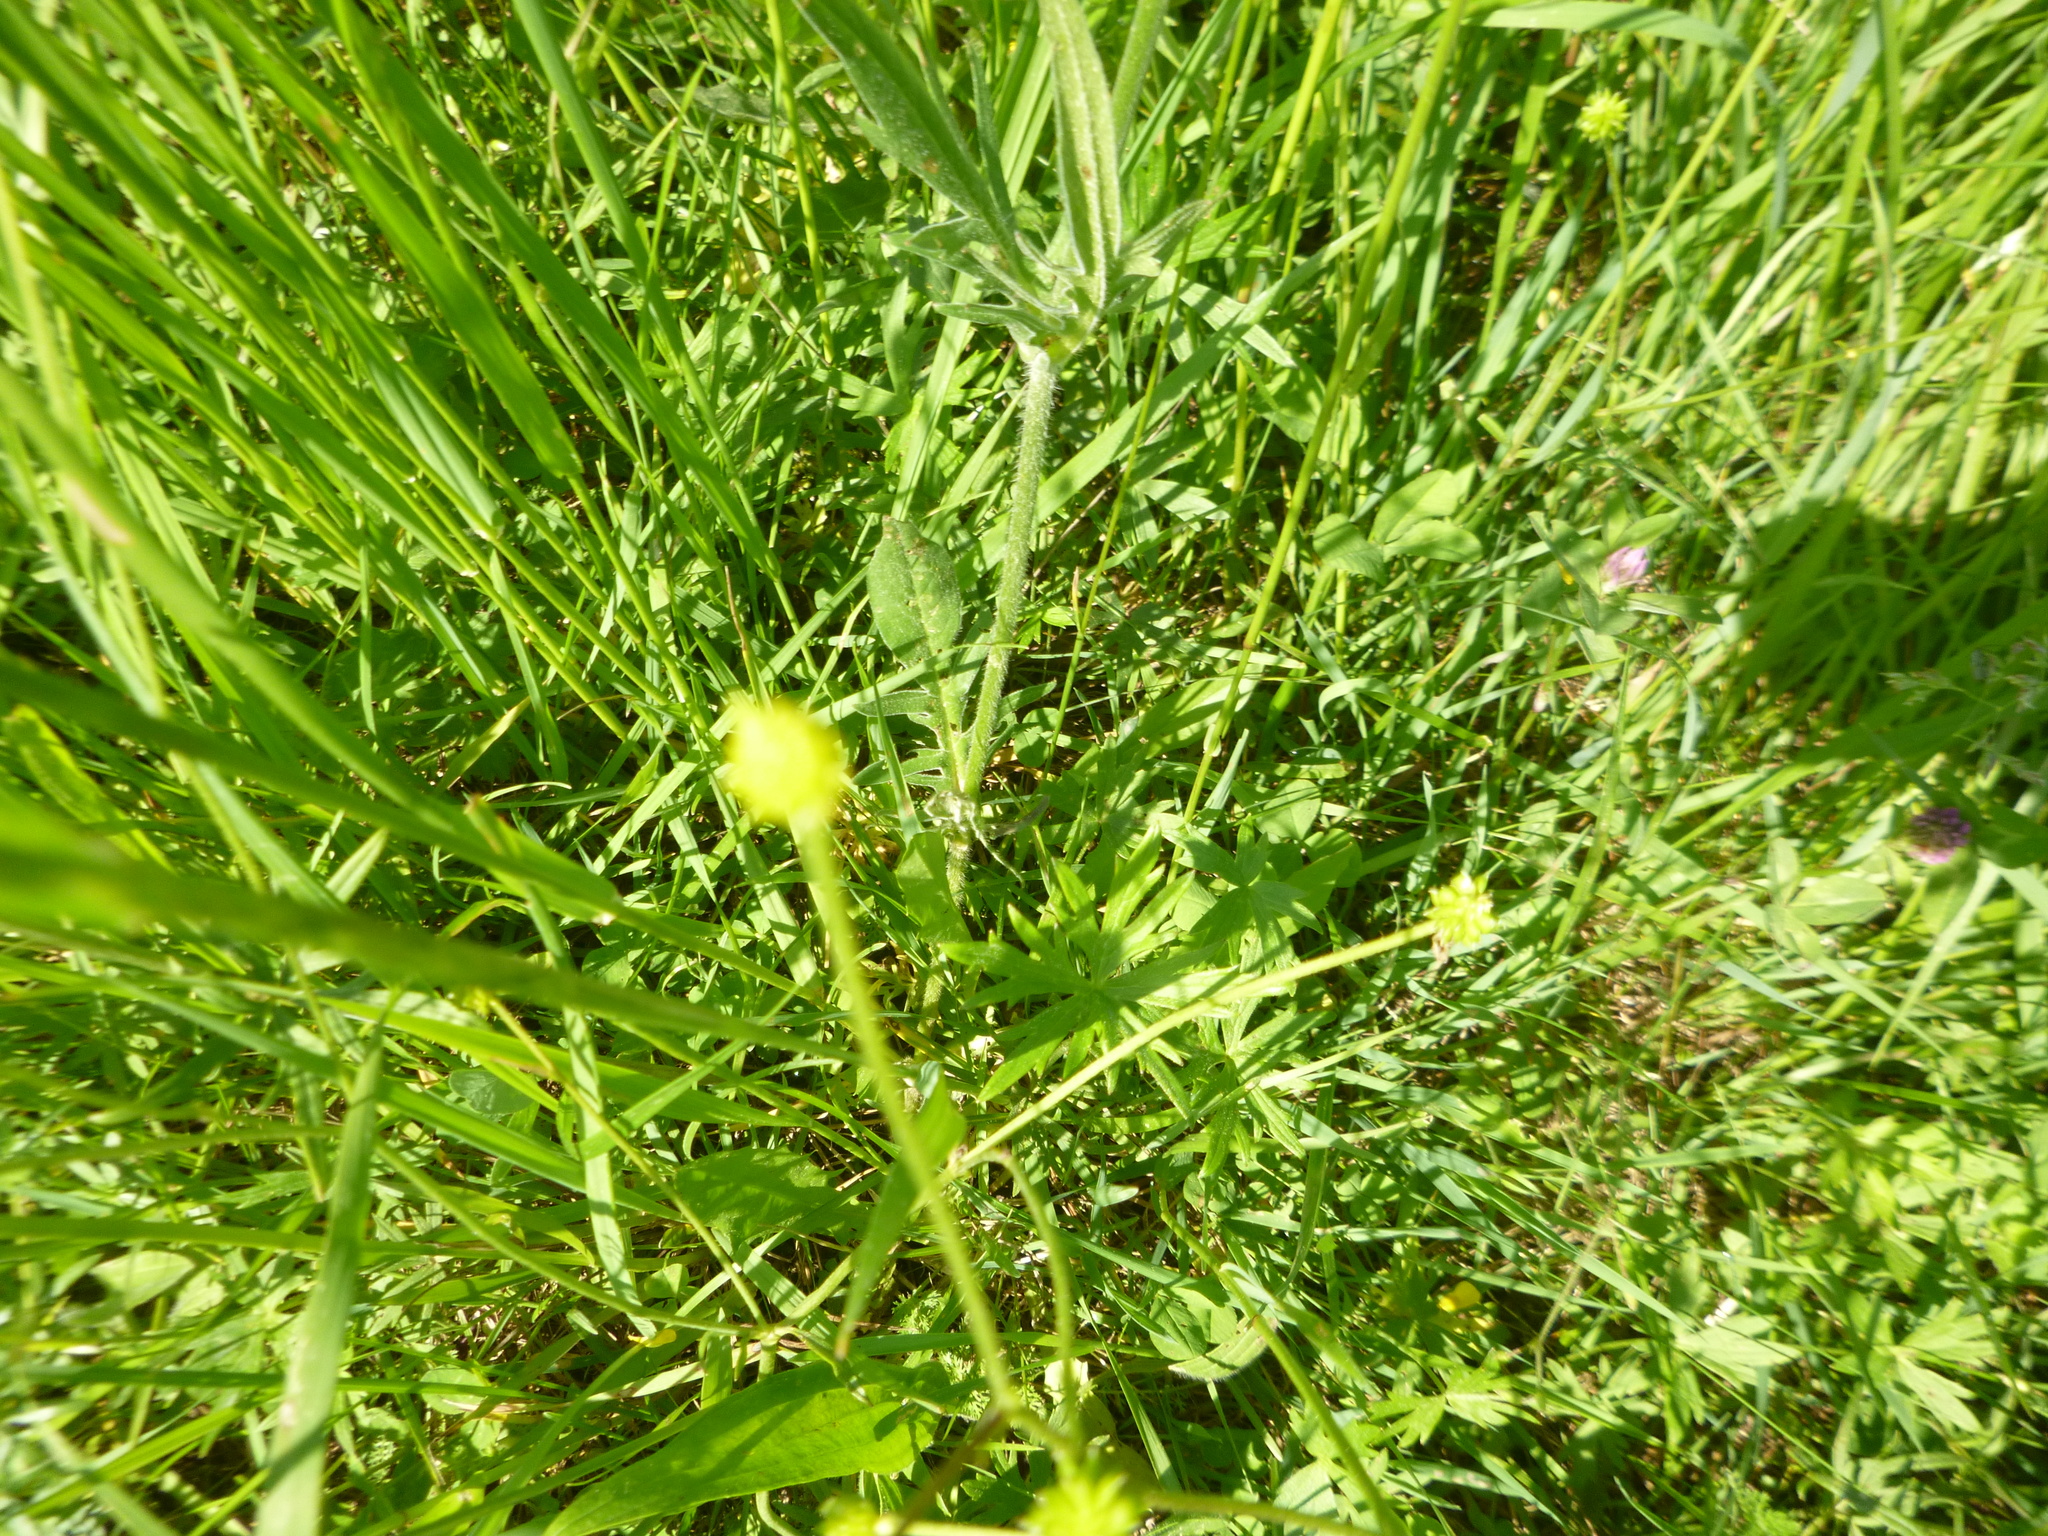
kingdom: Plantae
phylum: Tracheophyta
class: Magnoliopsida
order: Dipsacales
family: Caprifoliaceae
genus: Knautia
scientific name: Knautia arvensis
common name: Field scabiosa
